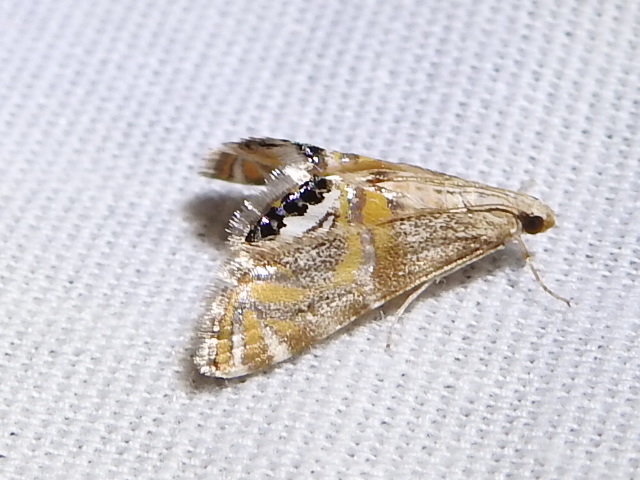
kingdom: Animalia
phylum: Arthropoda
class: Insecta
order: Lepidoptera
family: Crambidae
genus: Petrophila
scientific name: Petrophila cappsi
